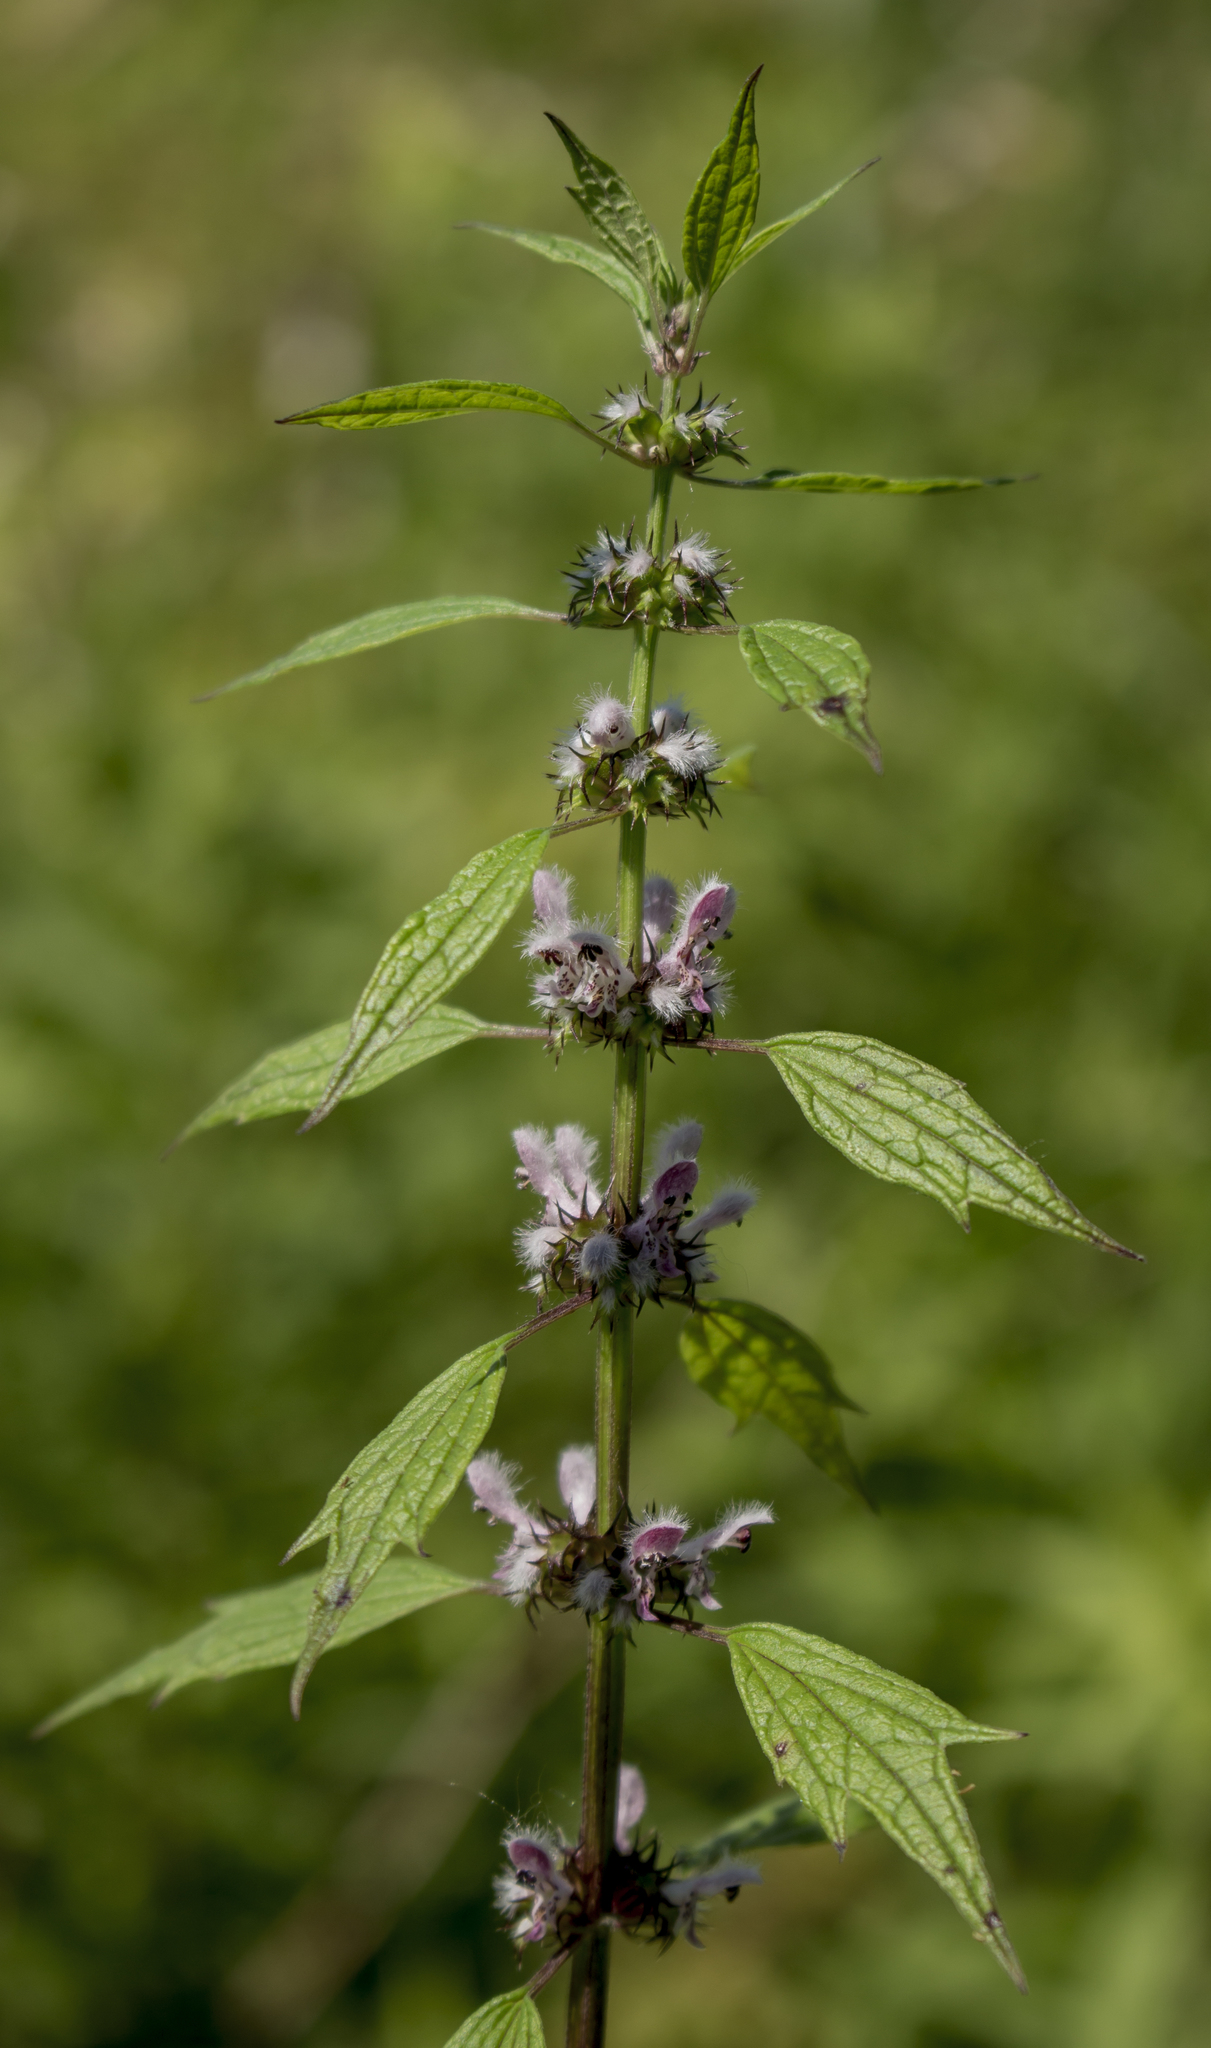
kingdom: Plantae
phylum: Tracheophyta
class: Magnoliopsida
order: Lamiales
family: Lamiaceae
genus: Leonurus
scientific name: Leonurus cardiaca
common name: Motherwort
